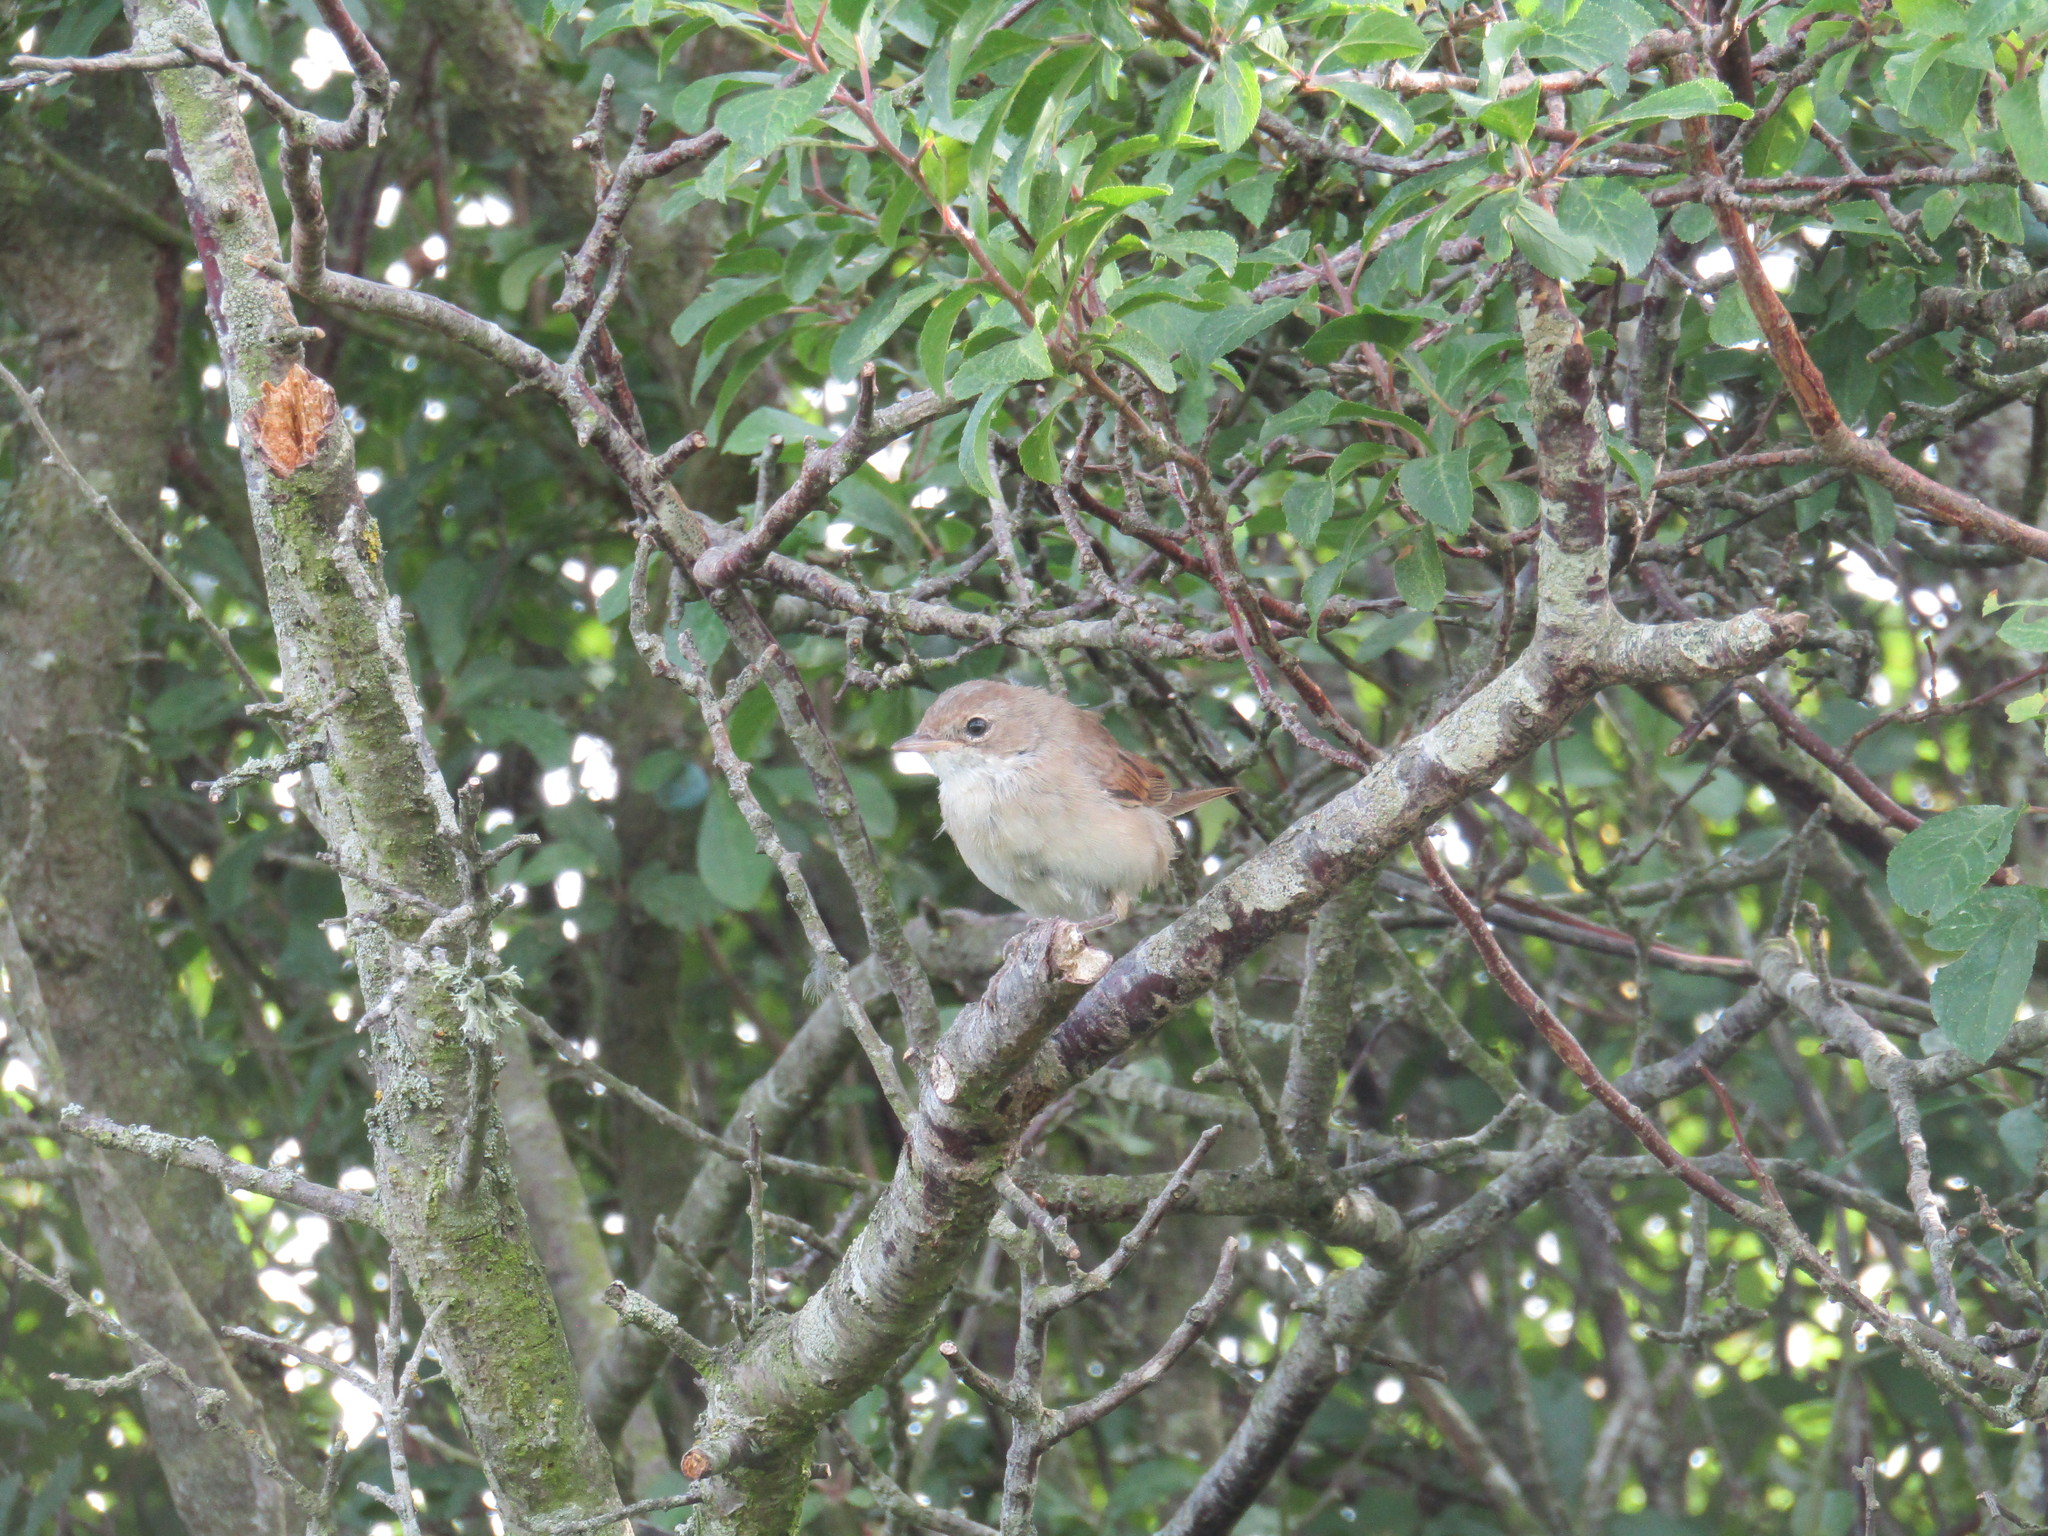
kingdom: Animalia
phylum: Chordata
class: Aves
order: Passeriformes
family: Sylviidae
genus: Sylvia
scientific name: Sylvia communis
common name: Common whitethroat
